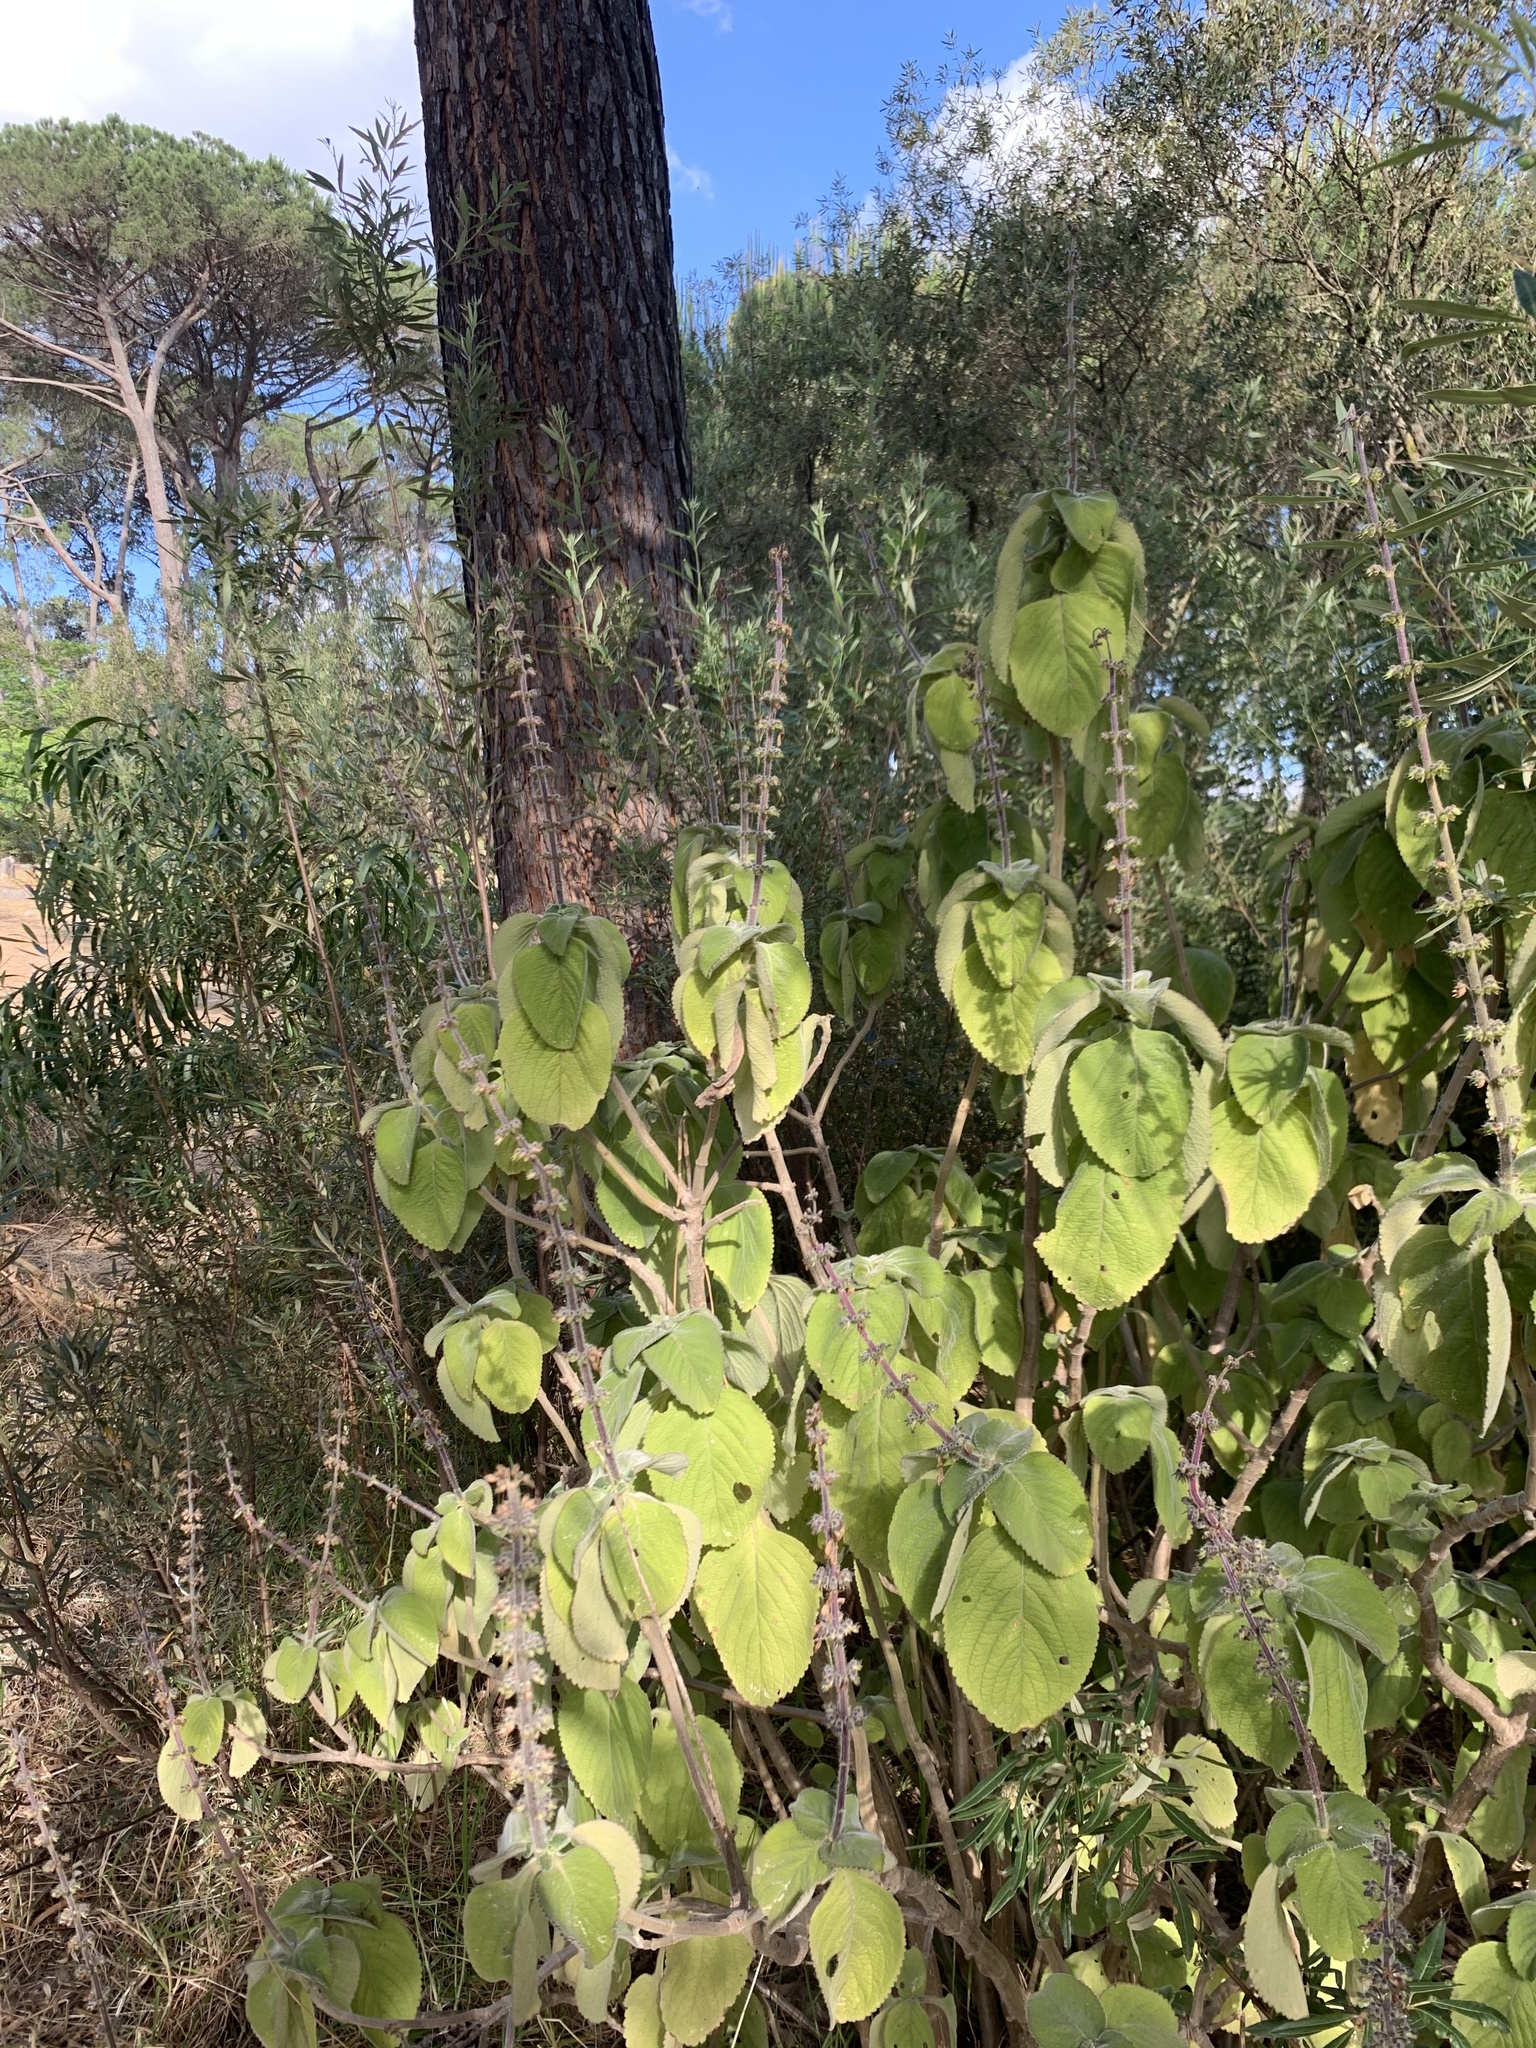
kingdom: Plantae
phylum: Tracheophyta
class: Magnoliopsida
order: Lamiales
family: Lamiaceae
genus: Coleus
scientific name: Coleus barbatus
